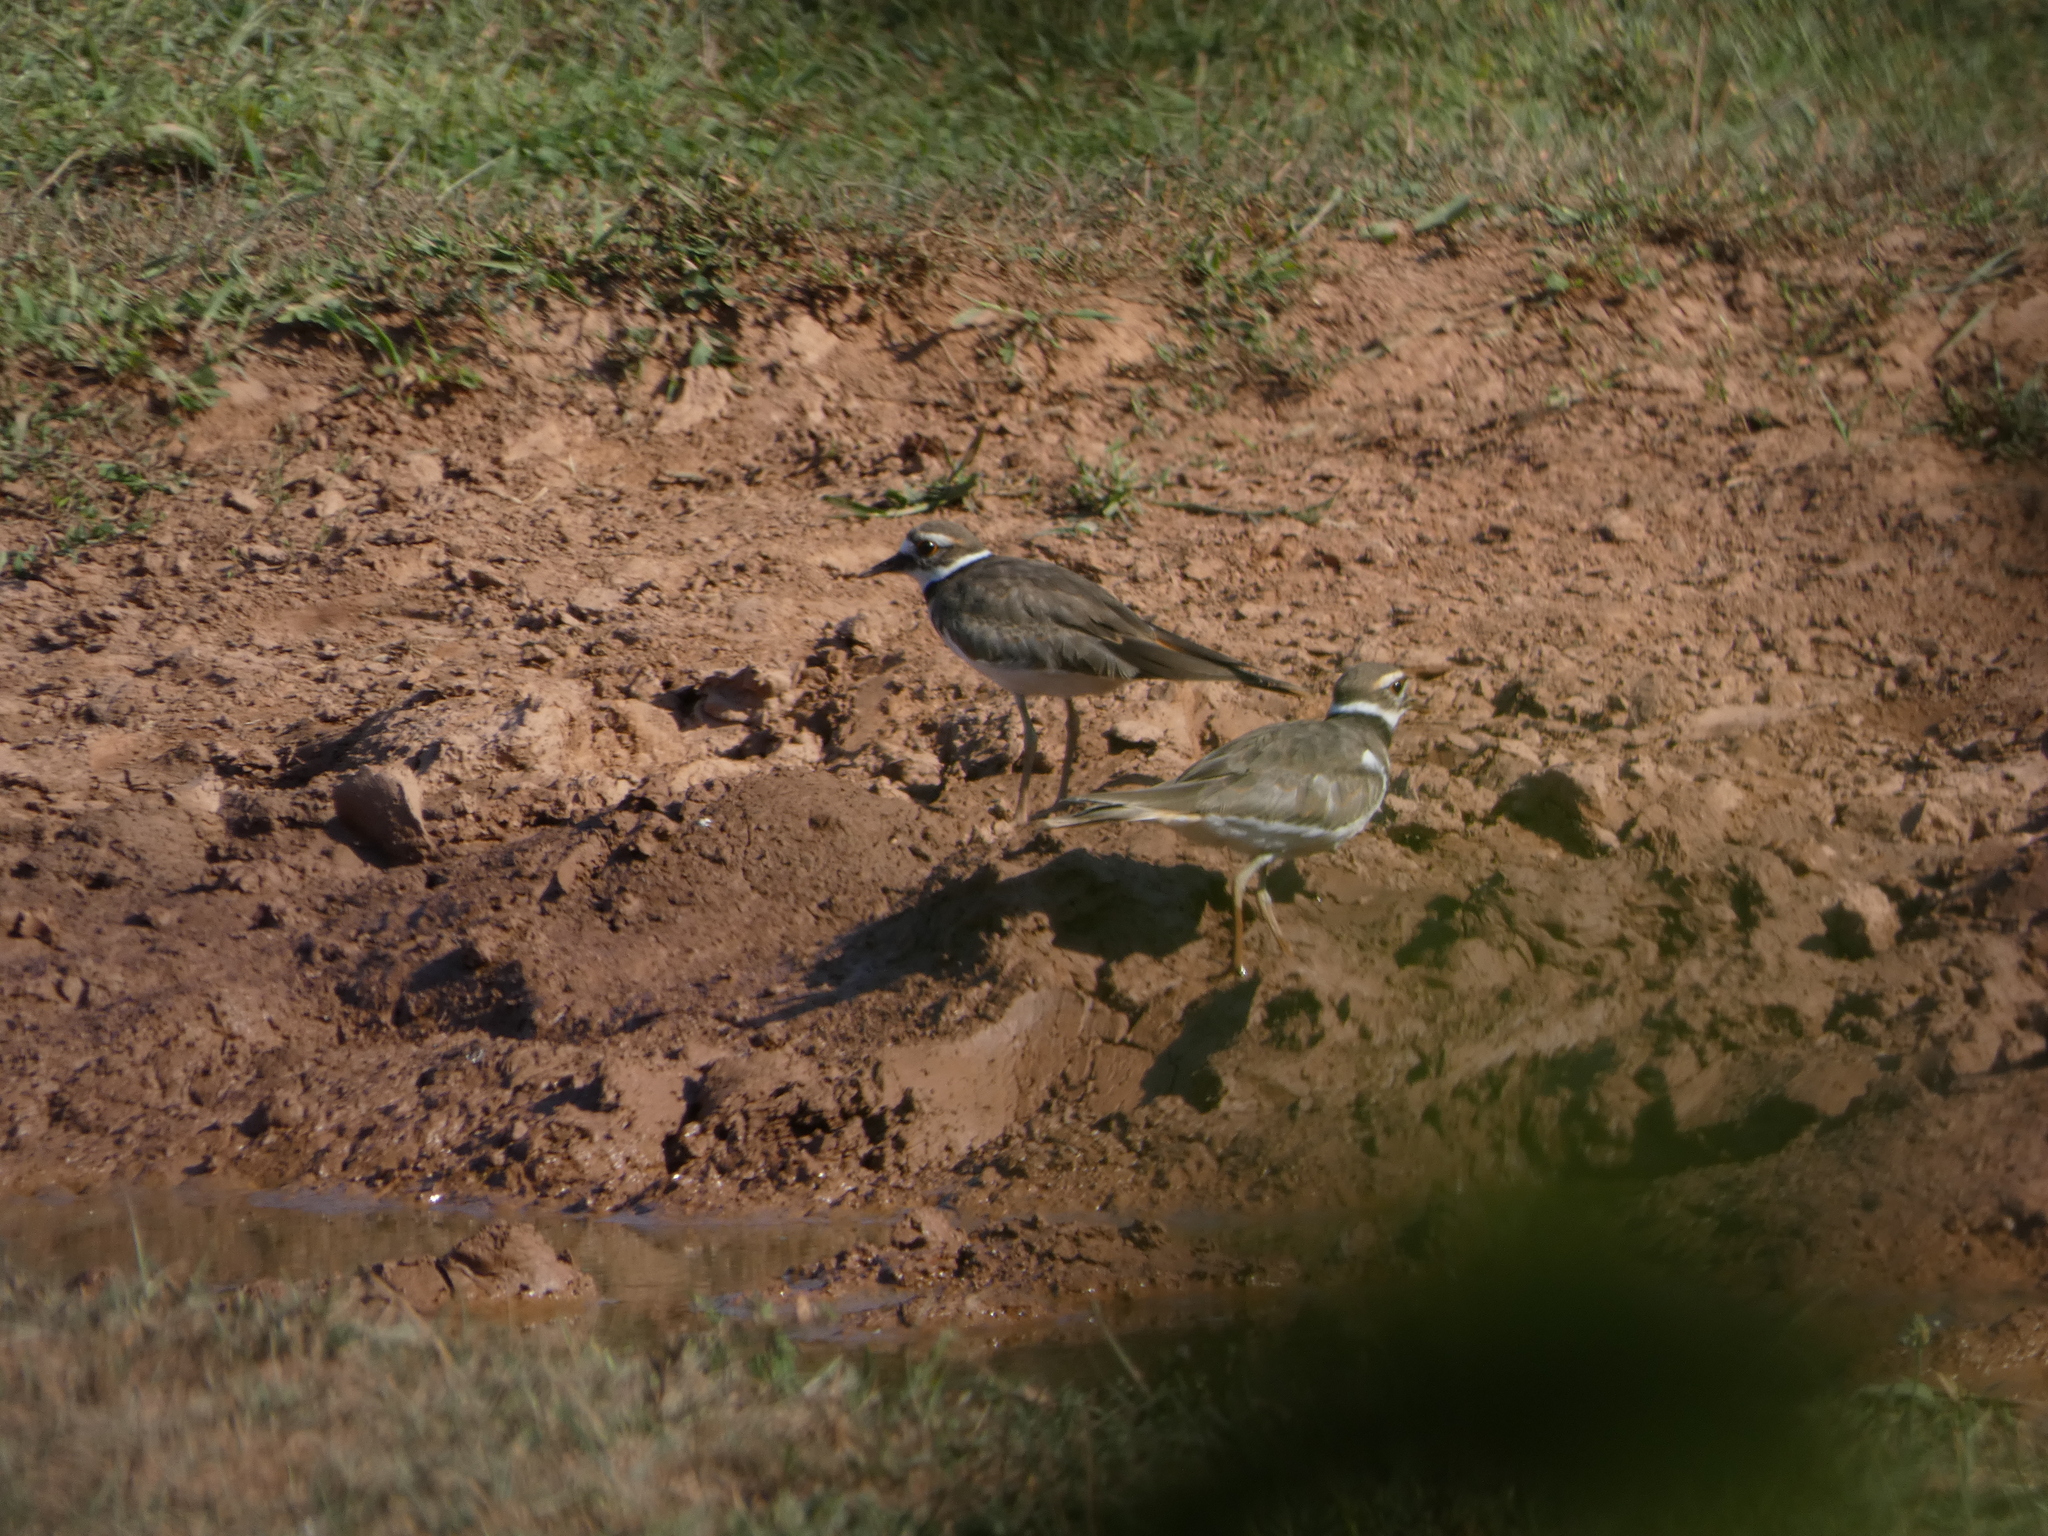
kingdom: Animalia
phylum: Chordata
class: Aves
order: Charadriiformes
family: Charadriidae
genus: Charadrius
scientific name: Charadrius vociferus
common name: Killdeer
